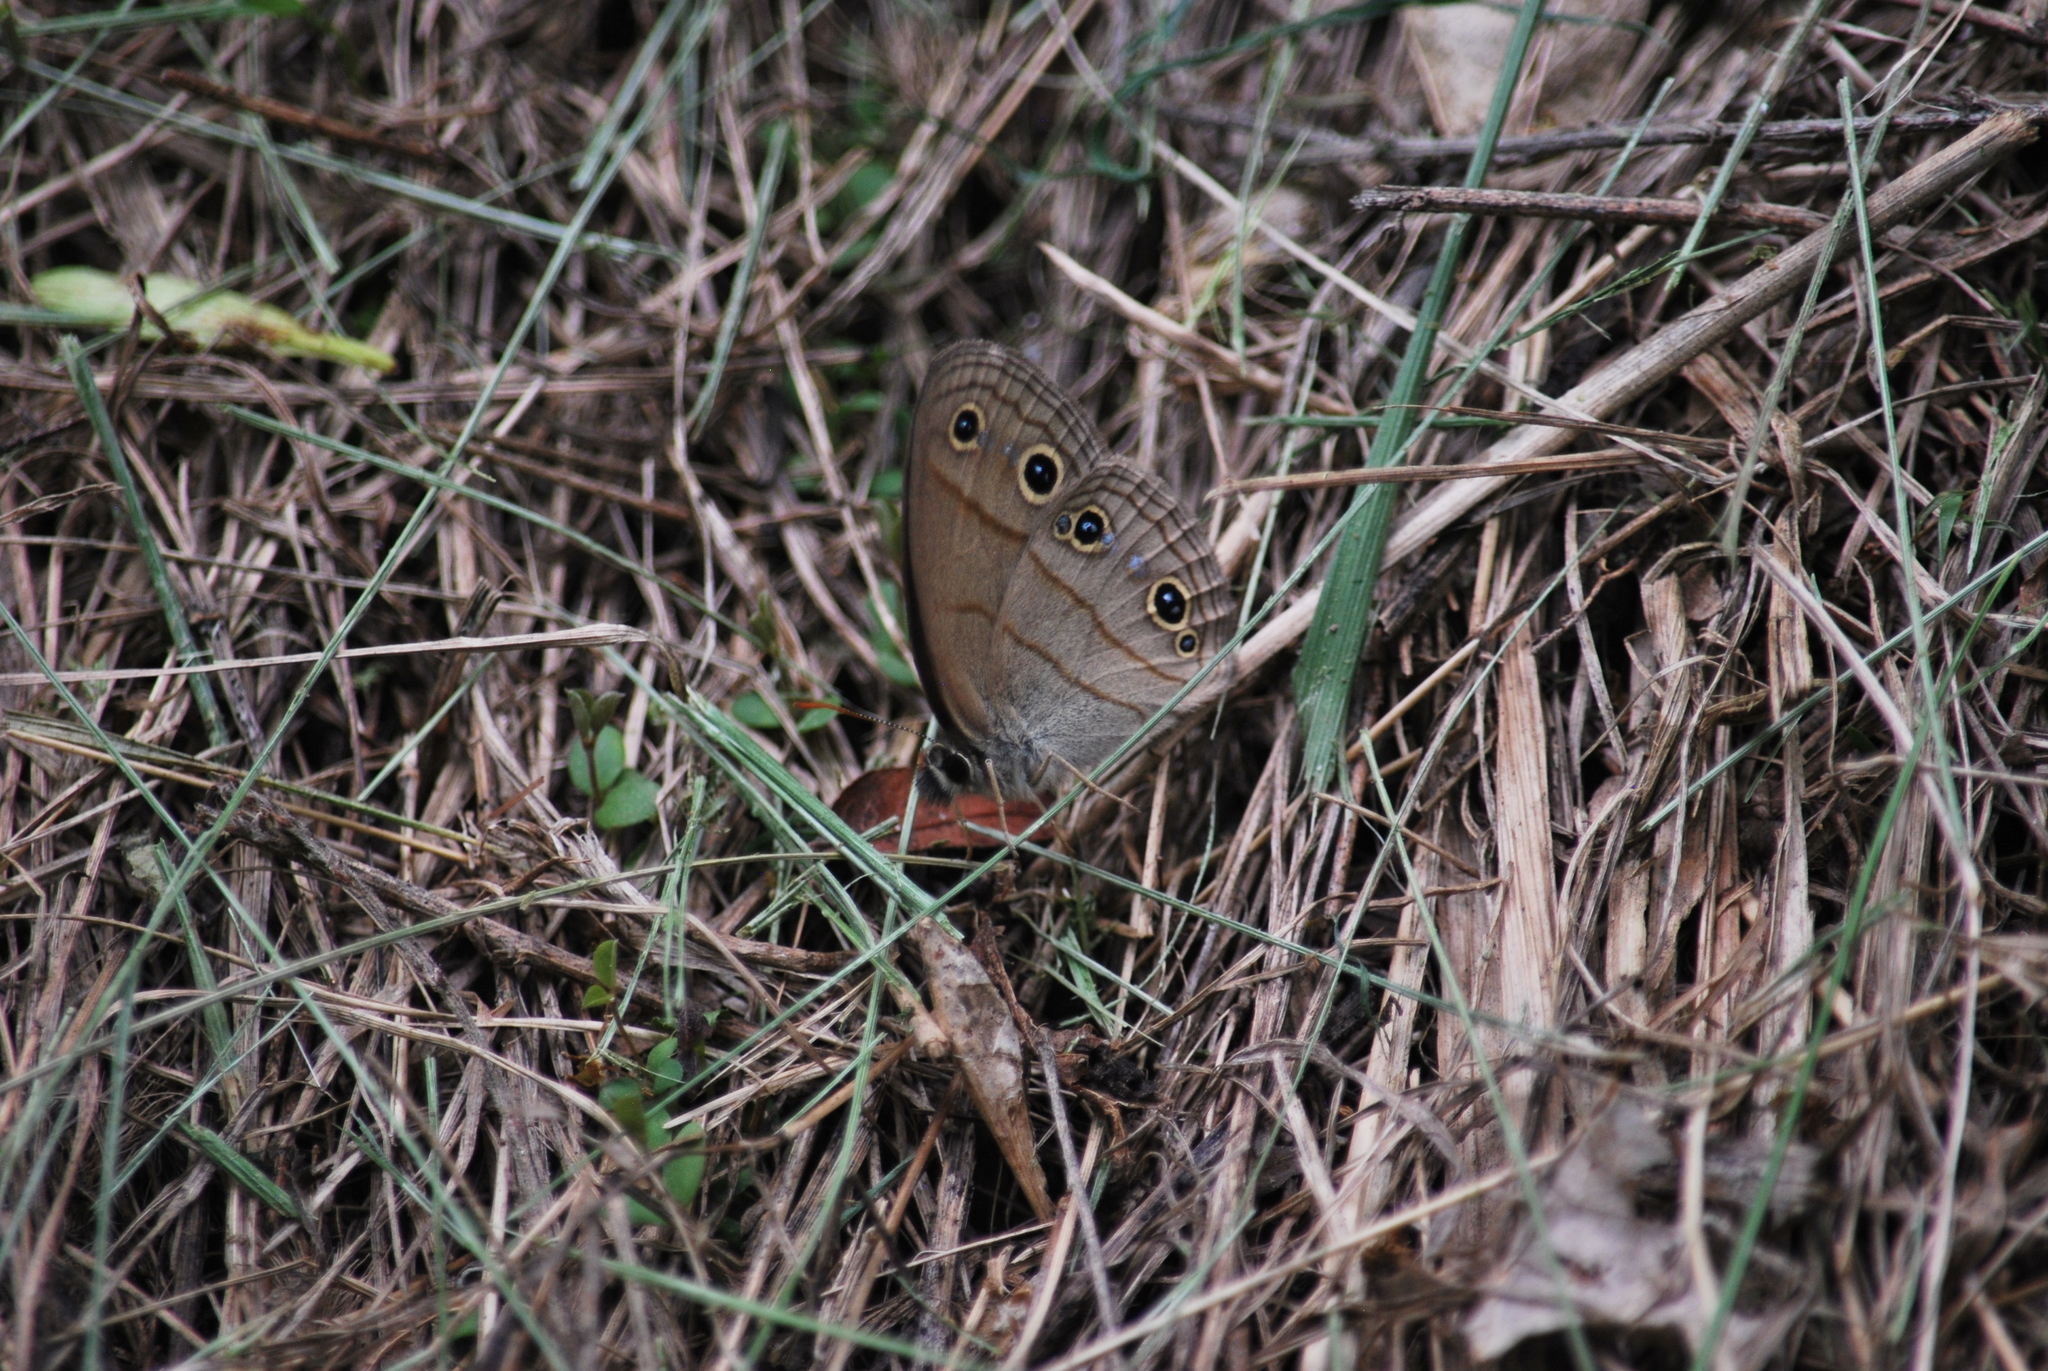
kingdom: Animalia
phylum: Arthropoda
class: Insecta
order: Lepidoptera
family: Nymphalidae
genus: Euptychia
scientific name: Euptychia cymela
